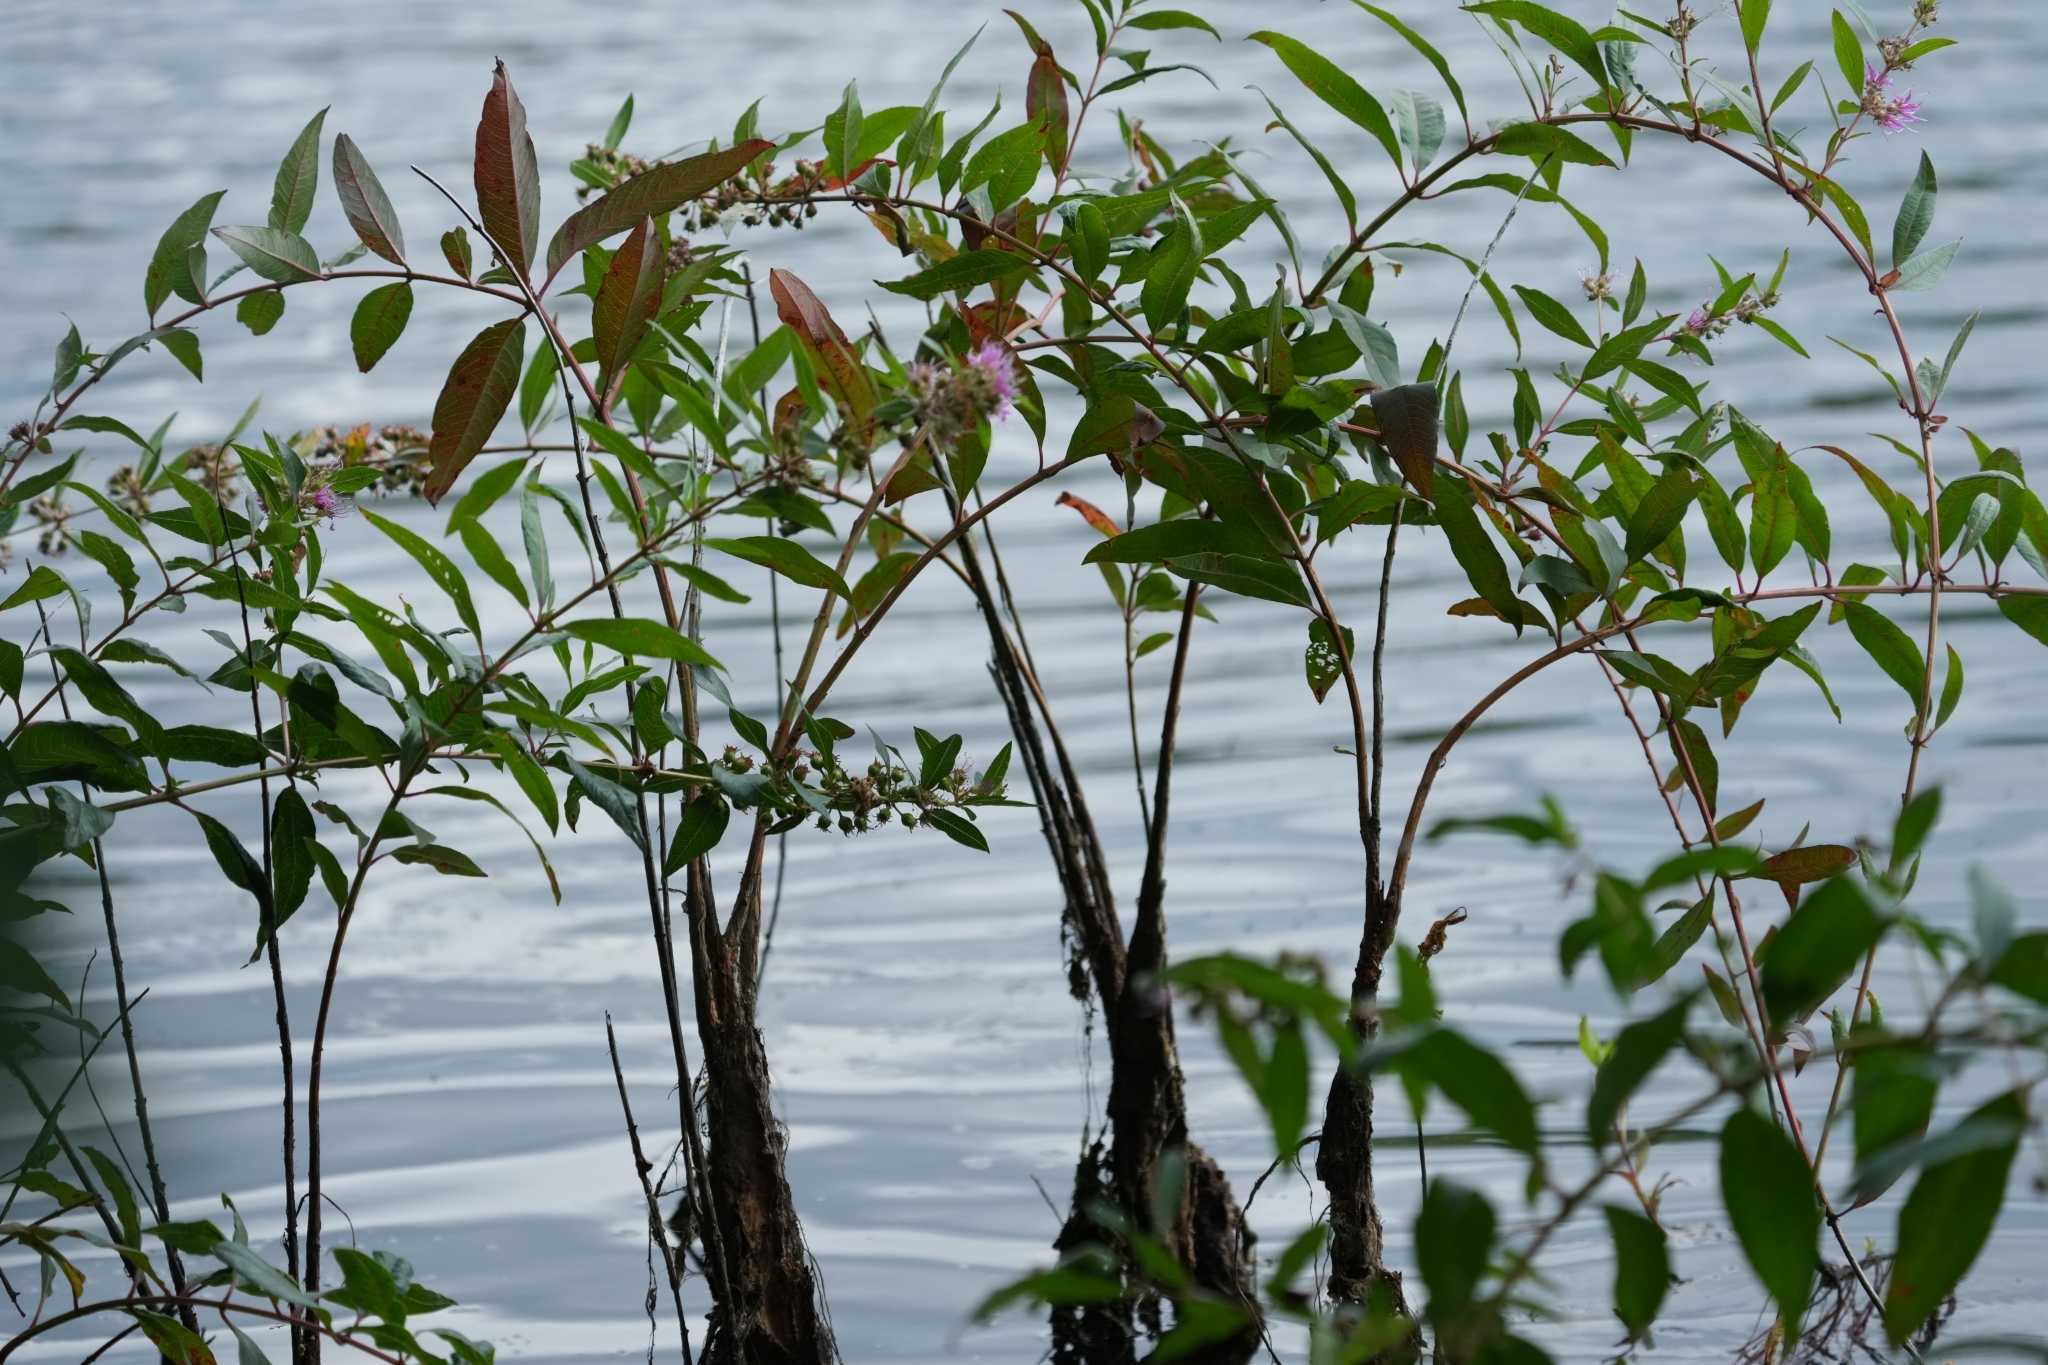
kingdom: Plantae
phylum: Tracheophyta
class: Magnoliopsida
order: Myrtales
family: Lythraceae
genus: Decodon
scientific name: Decodon verticillatus
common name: Hairy swamp loosestrife
